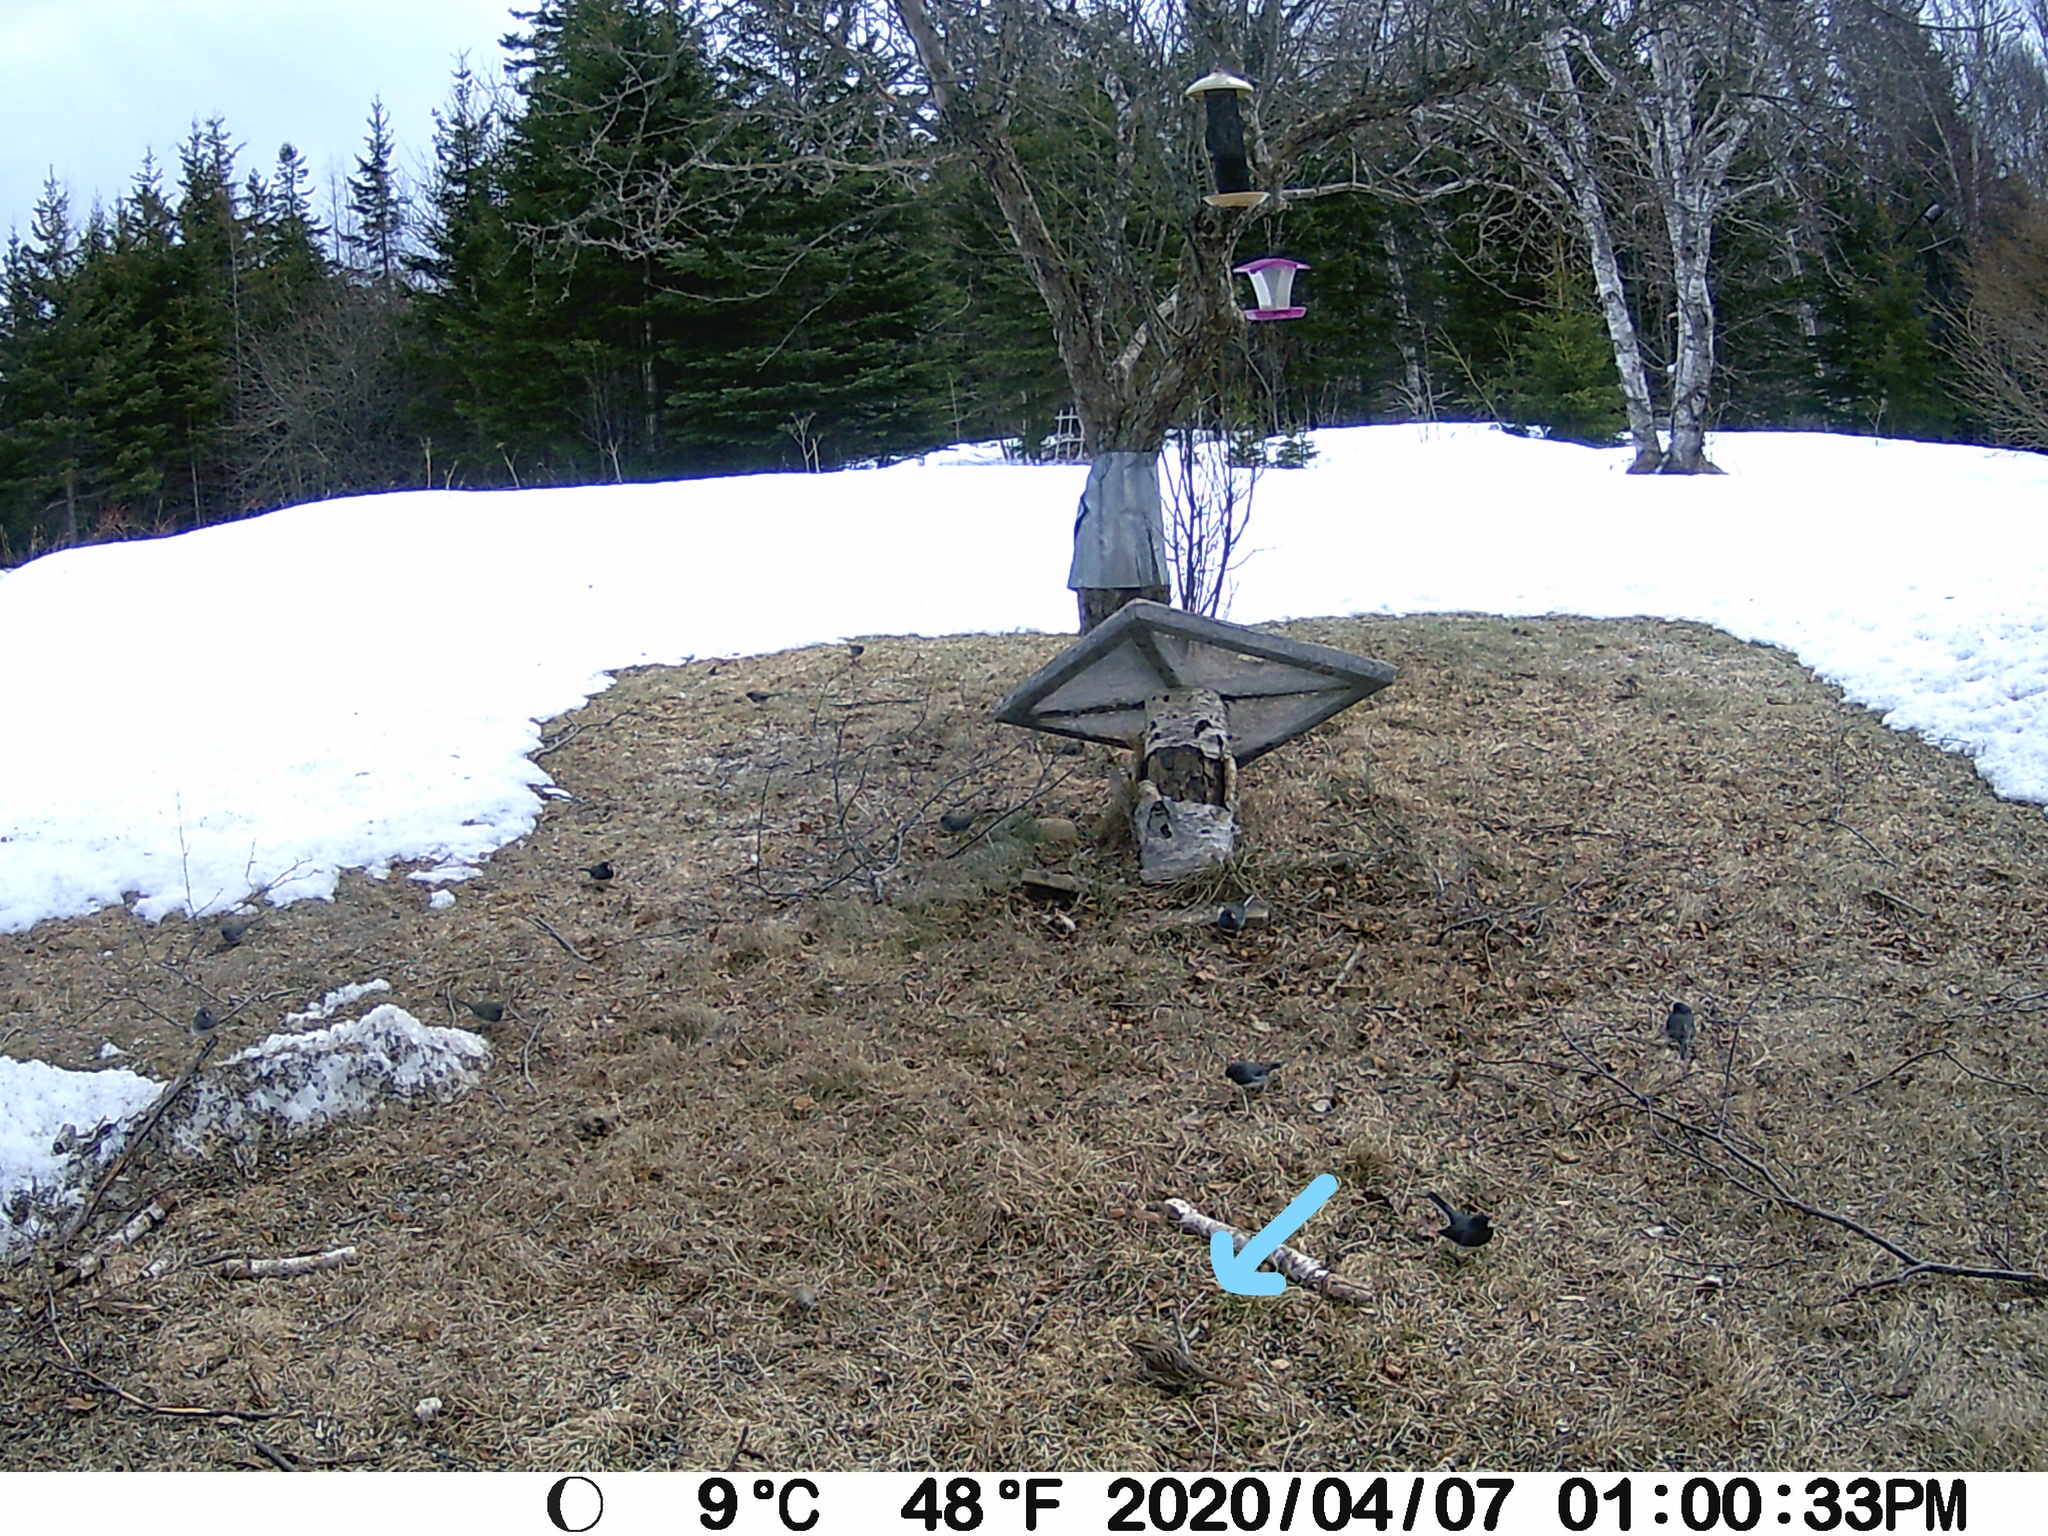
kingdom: Animalia
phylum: Chordata
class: Aves
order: Passeriformes
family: Passerellidae
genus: Melospiza
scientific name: Melospiza melodia
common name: Song sparrow
